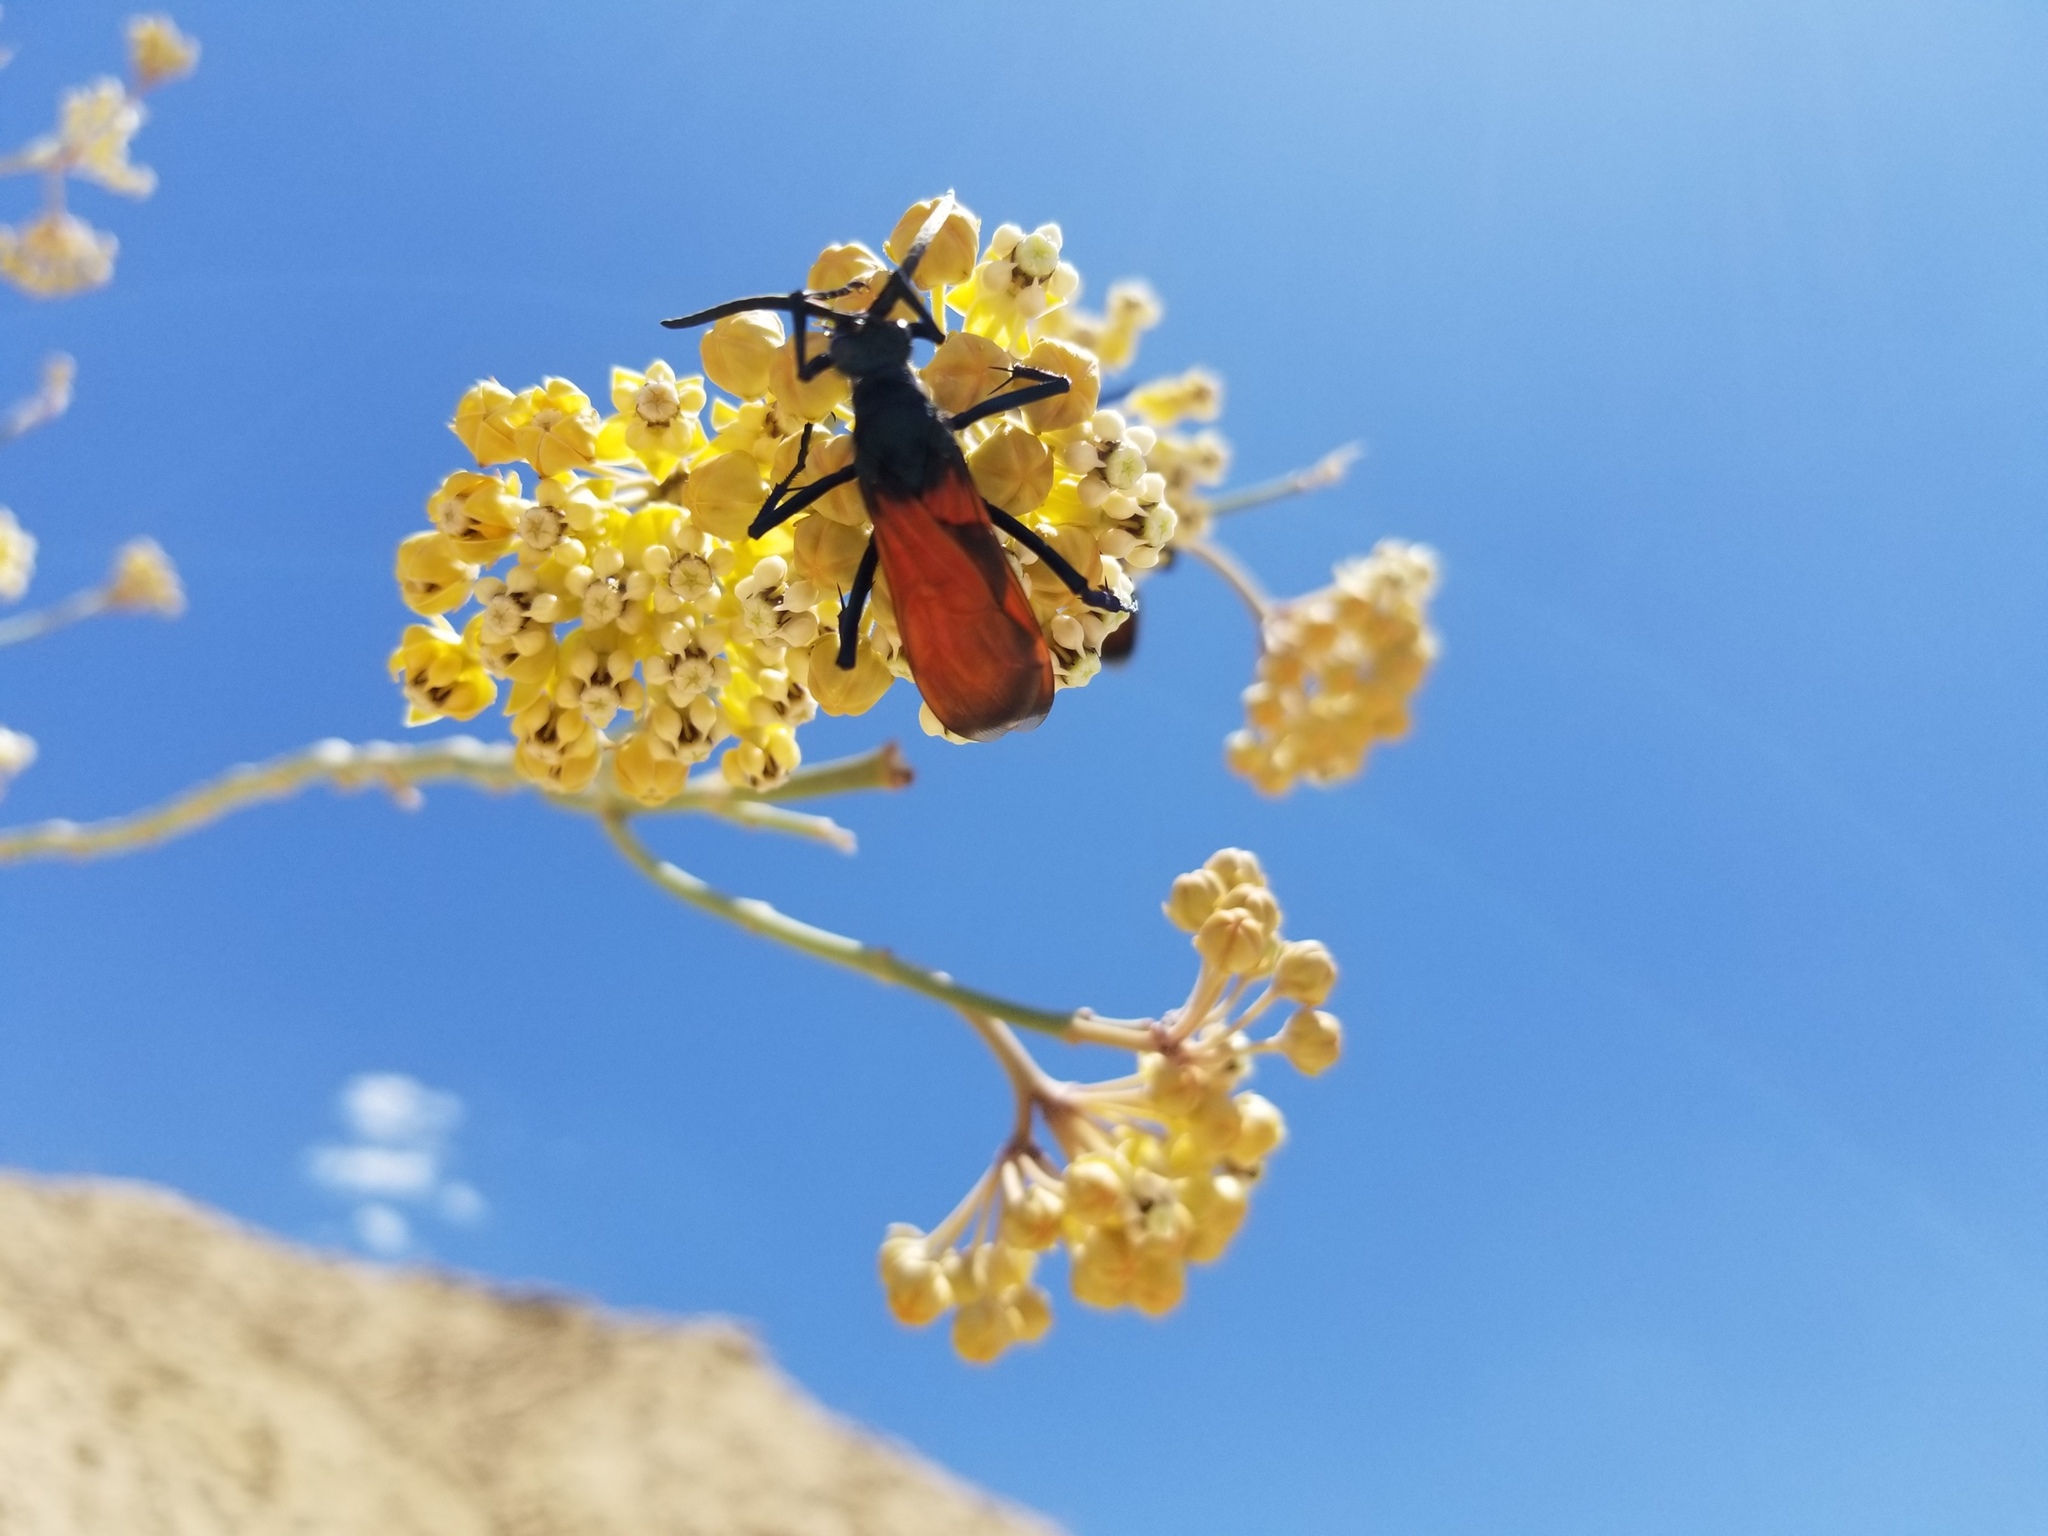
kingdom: Animalia
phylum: Arthropoda
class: Insecta
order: Hymenoptera
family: Pompilidae
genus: Pepsis
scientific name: Pepsis thisbe
